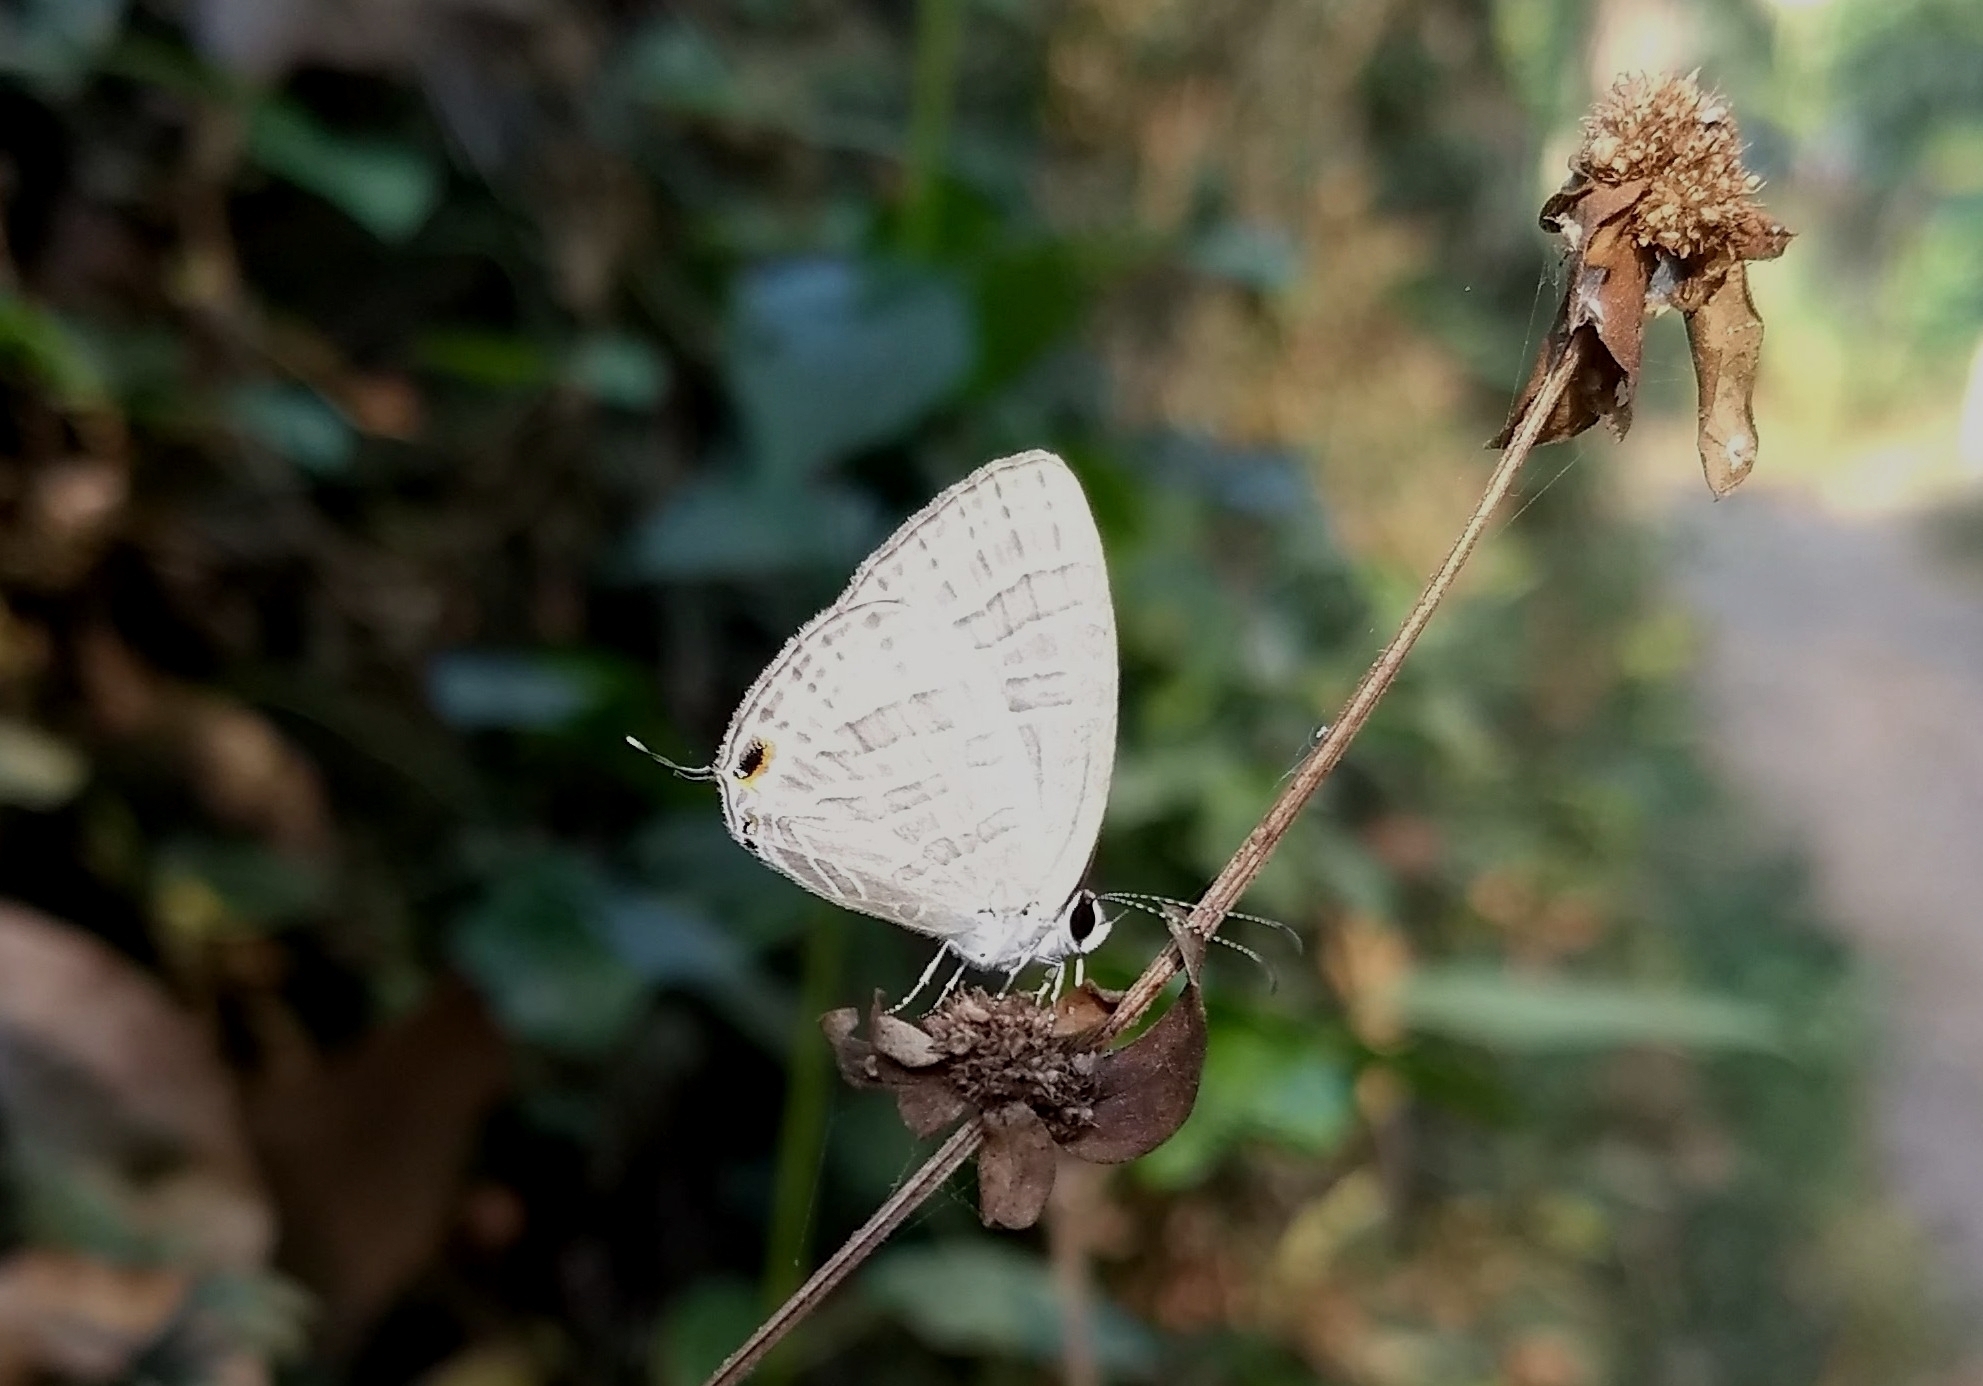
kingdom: Animalia
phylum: Arthropoda
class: Insecta
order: Lepidoptera
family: Lycaenidae
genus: Jamides
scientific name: Jamides celeno
